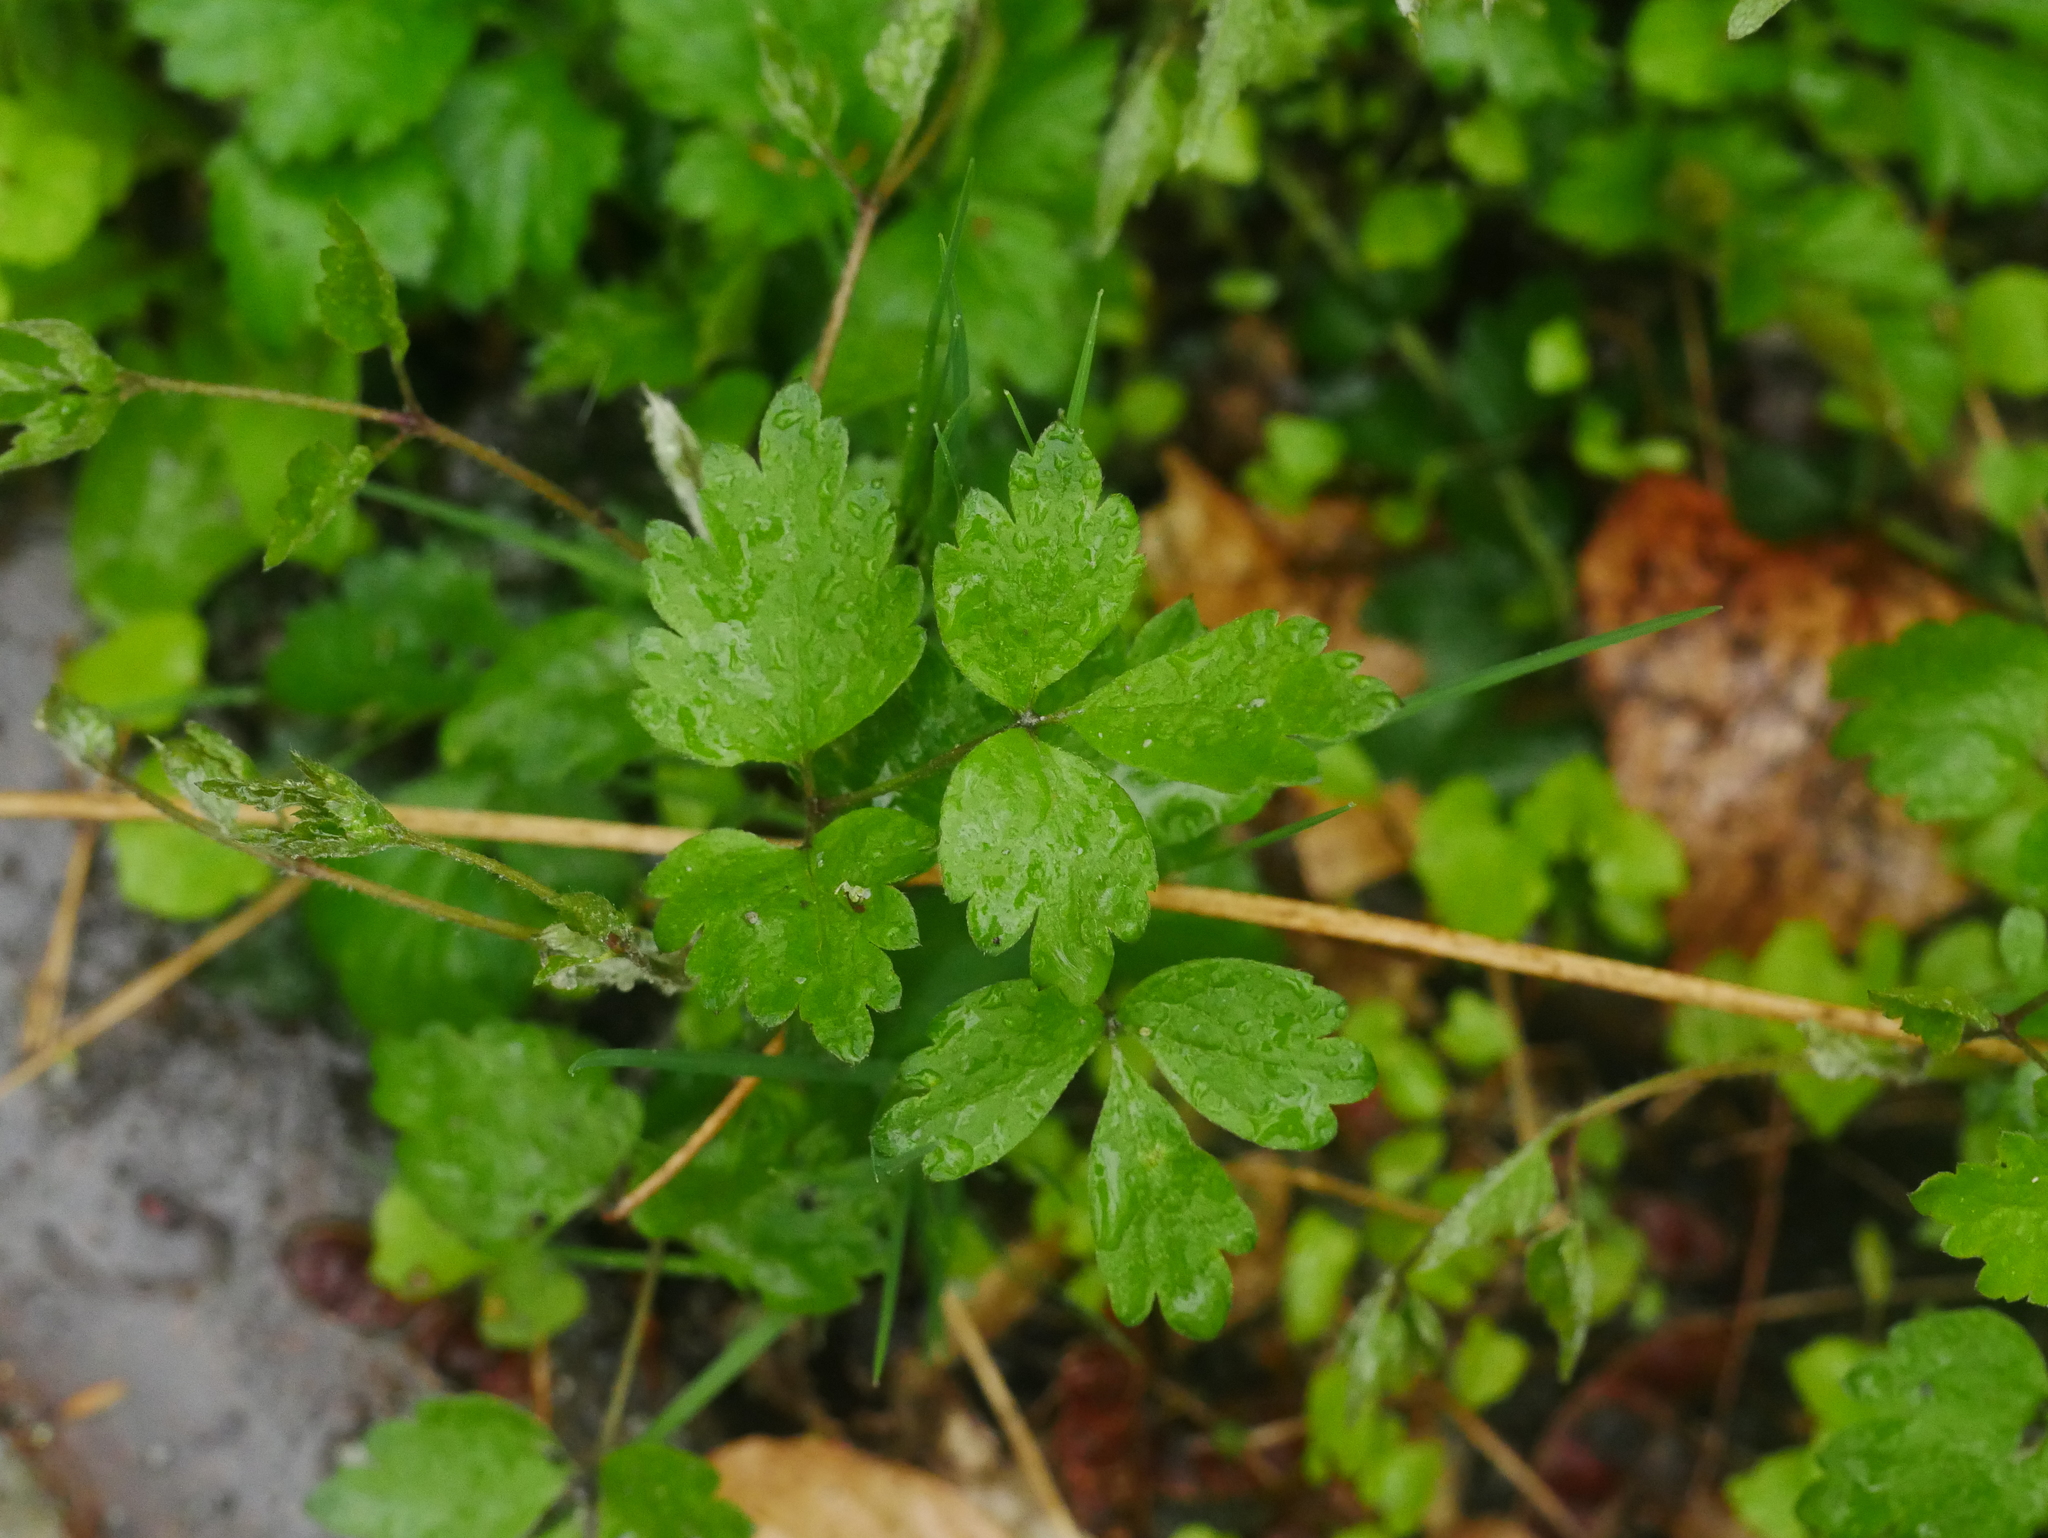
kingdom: Plantae
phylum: Tracheophyta
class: Magnoliopsida
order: Ranunculales
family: Ranunculaceae
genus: Clematis
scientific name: Clematis vitalba
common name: Evergreen clematis
